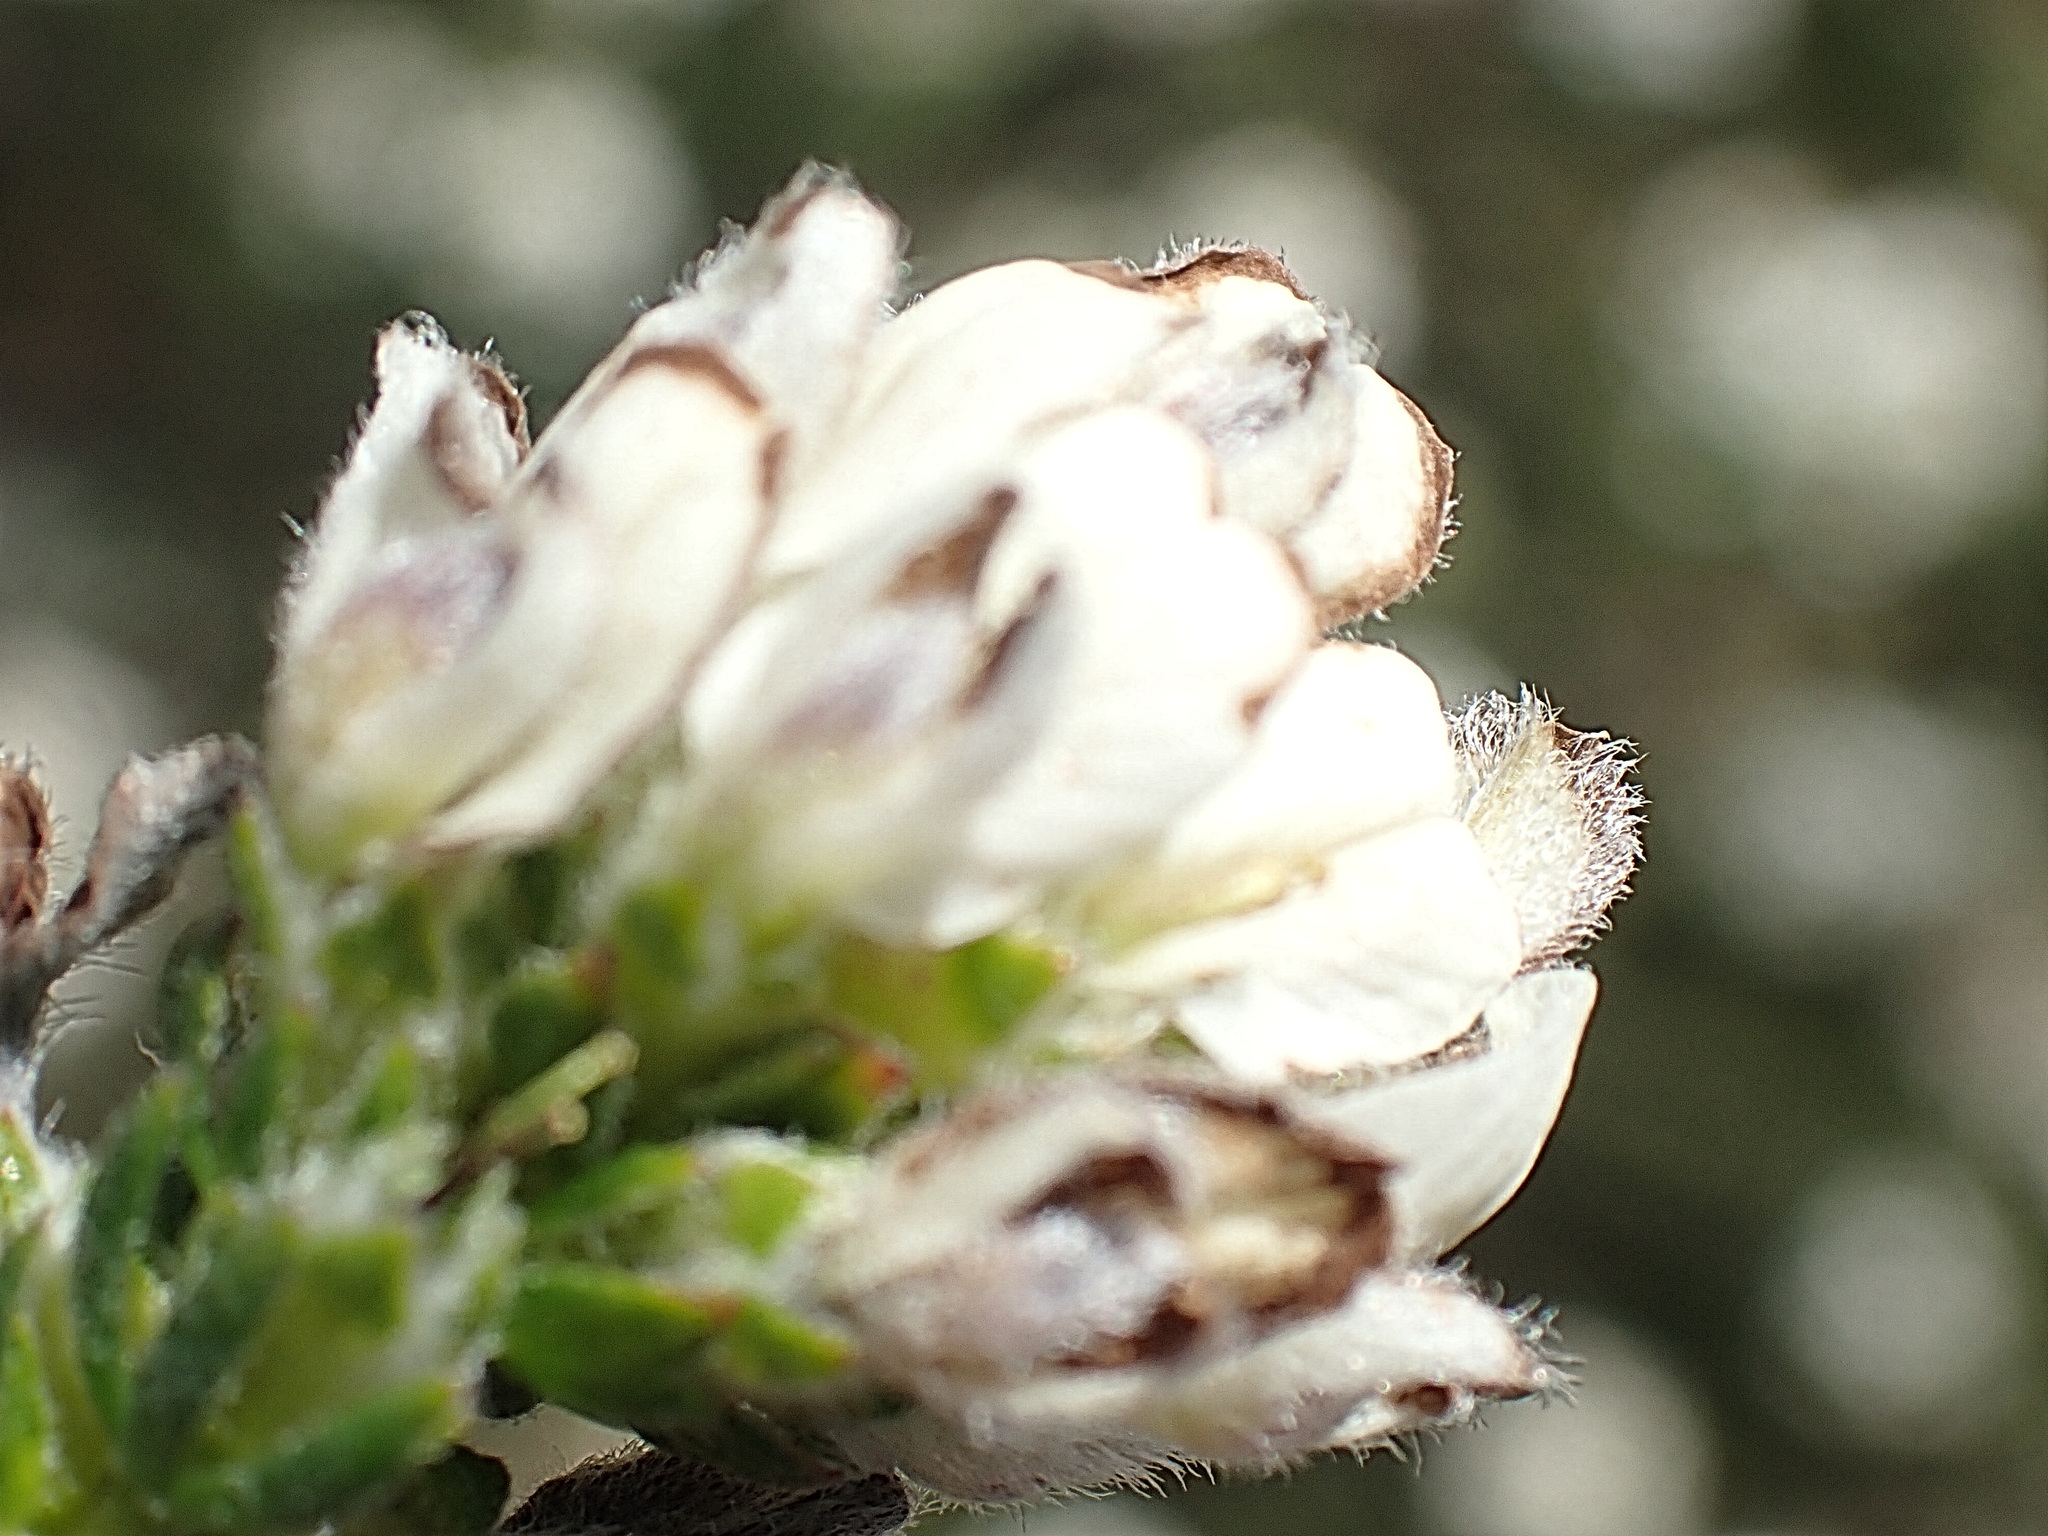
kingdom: Plantae
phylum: Tracheophyta
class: Magnoliopsida
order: Fabales
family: Fabaceae
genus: Aspalathus
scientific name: Aspalathus nigra
